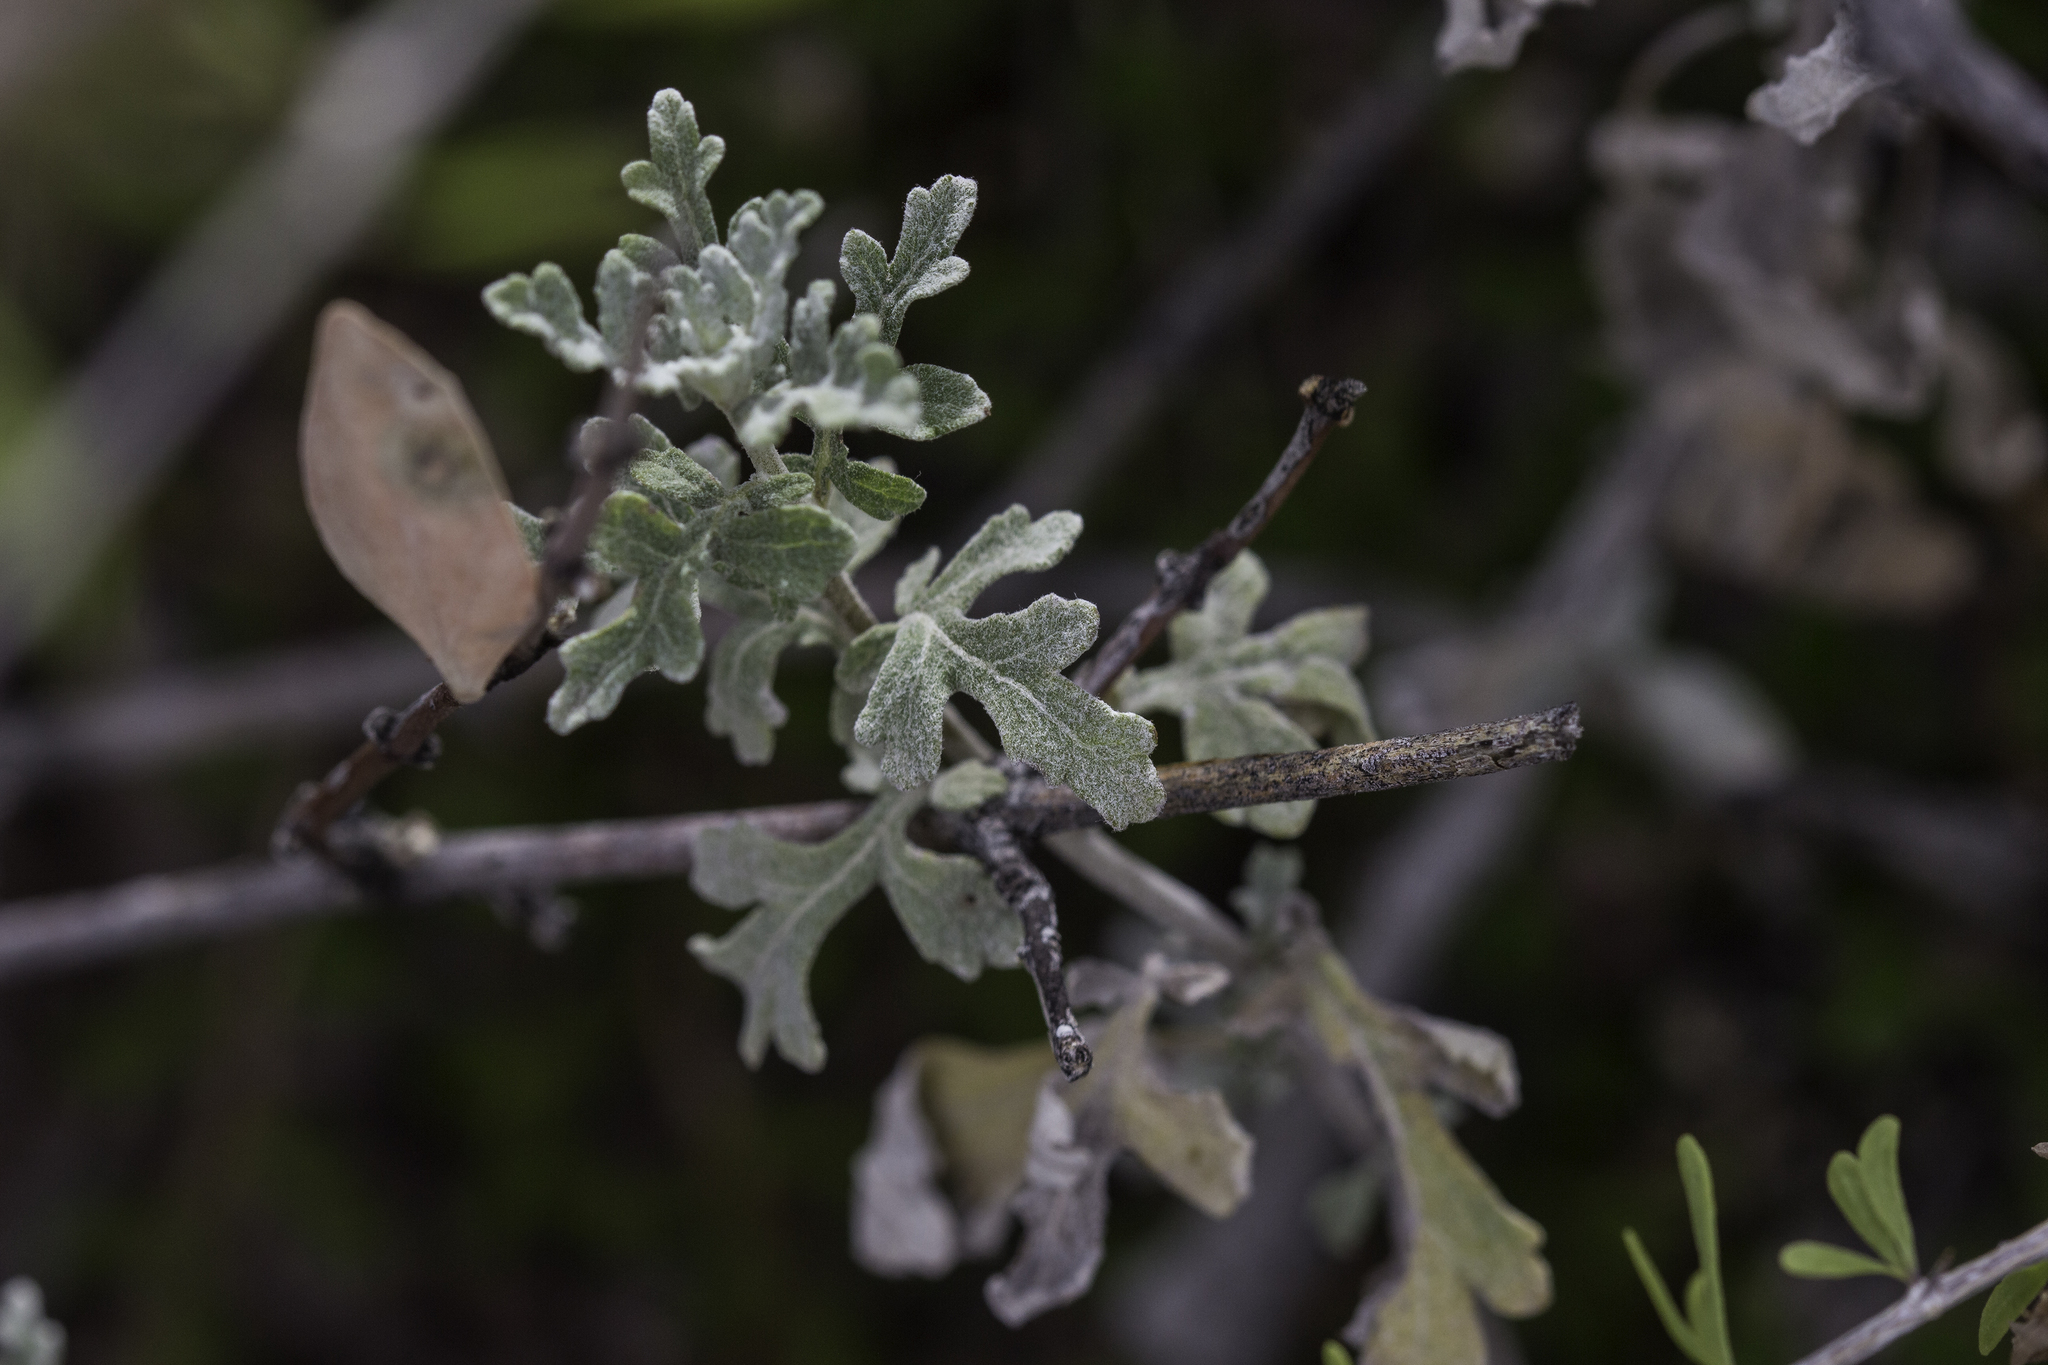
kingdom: Plantae
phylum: Tracheophyta
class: Magnoliopsida
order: Asterales
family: Asteraceae
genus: Parthenium
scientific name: Parthenium incanum
